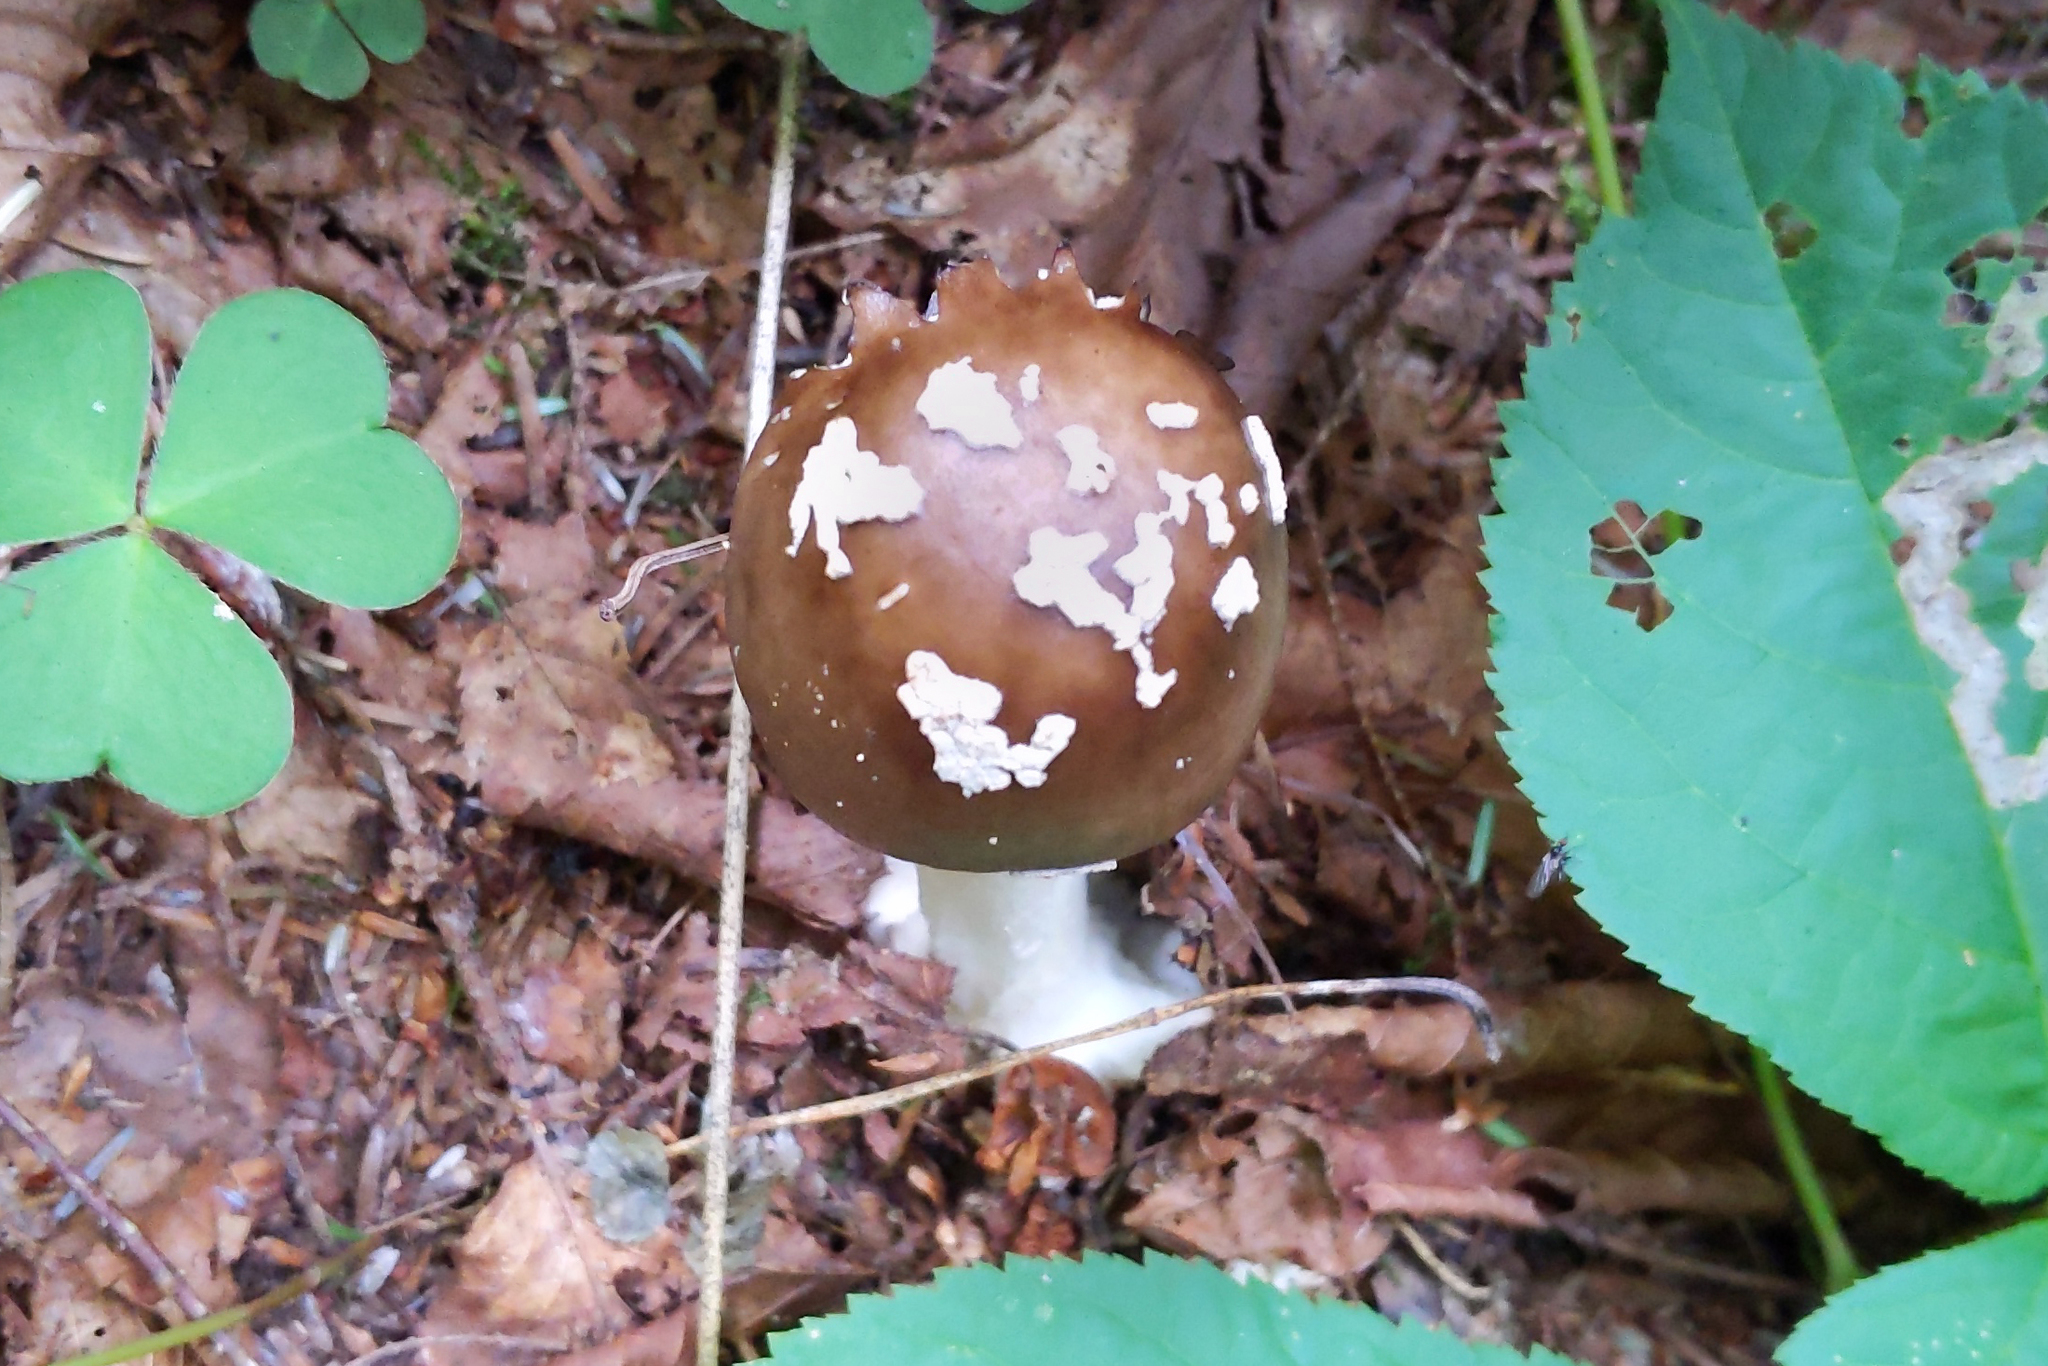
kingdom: Fungi
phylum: Basidiomycota
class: Agaricomycetes
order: Agaricales
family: Amanitaceae
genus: Amanita
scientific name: Amanita brunnescens
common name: Brown american star-footed amanita
